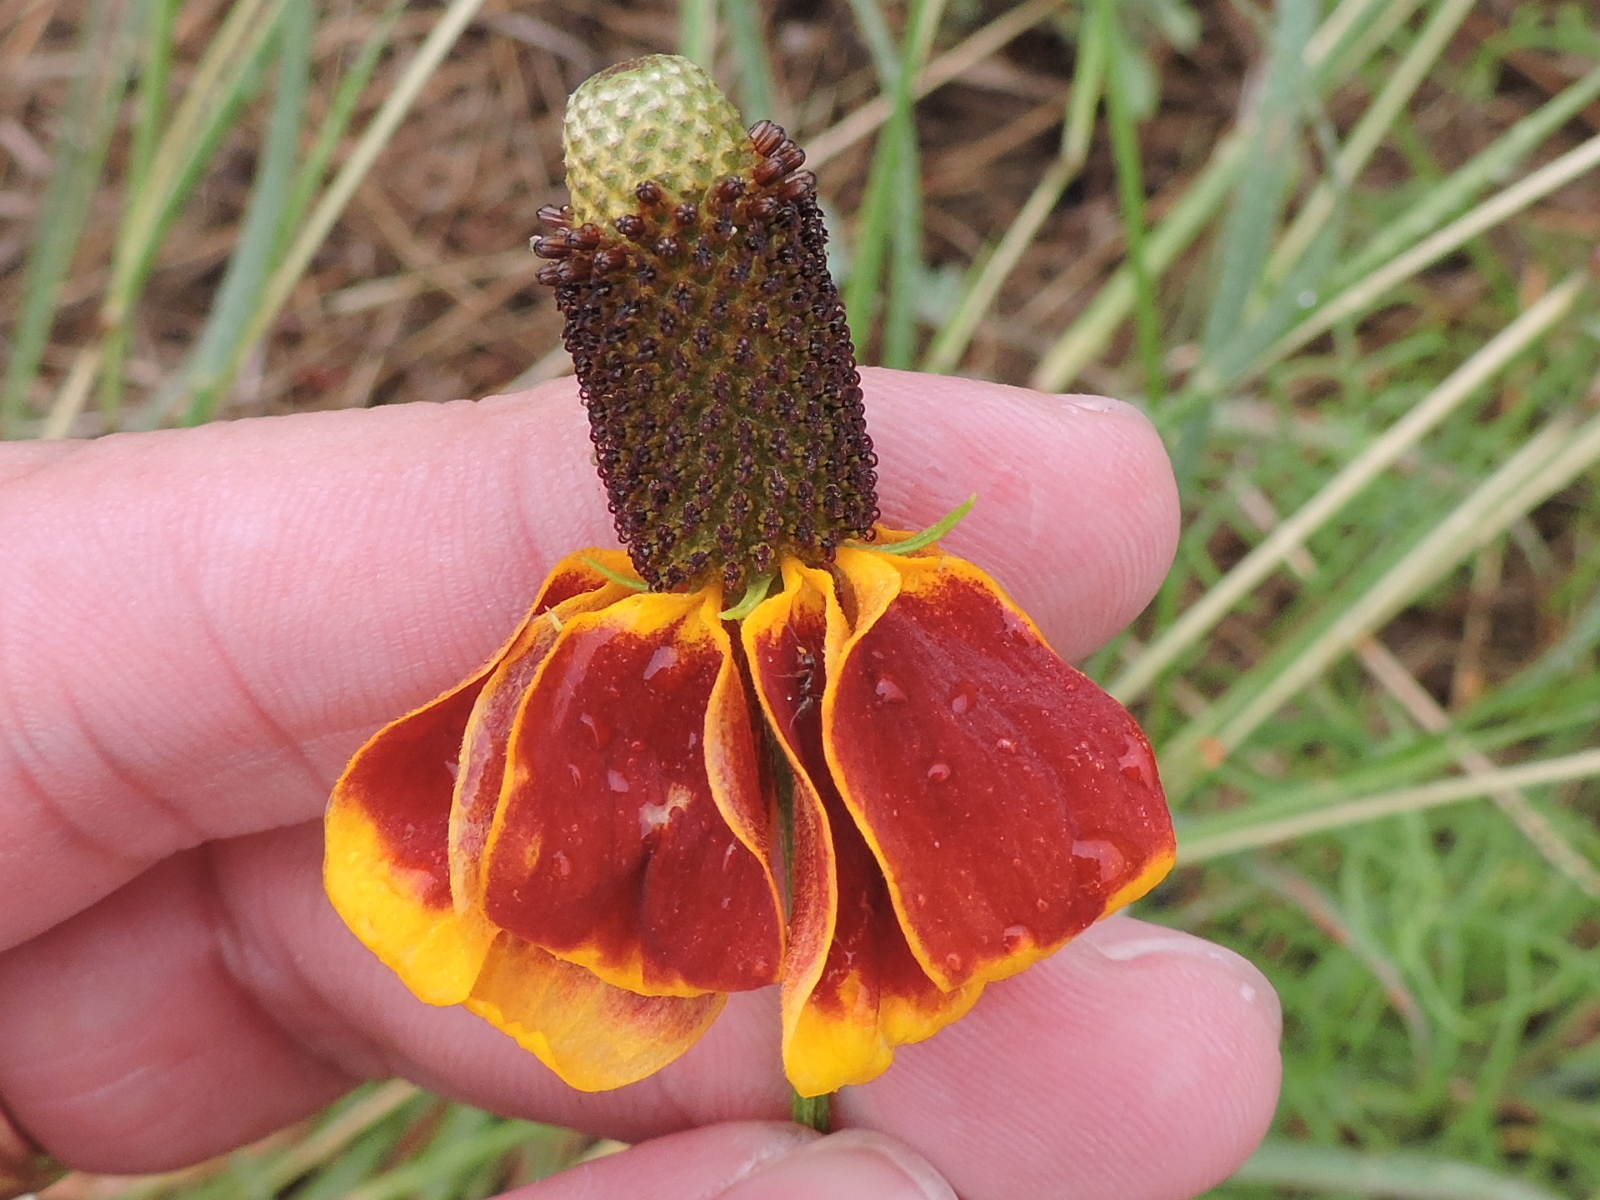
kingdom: Plantae
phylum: Tracheophyta
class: Magnoliopsida
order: Asterales
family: Asteraceae
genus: Ratibida
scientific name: Ratibida columnifera
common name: Prairie coneflower
